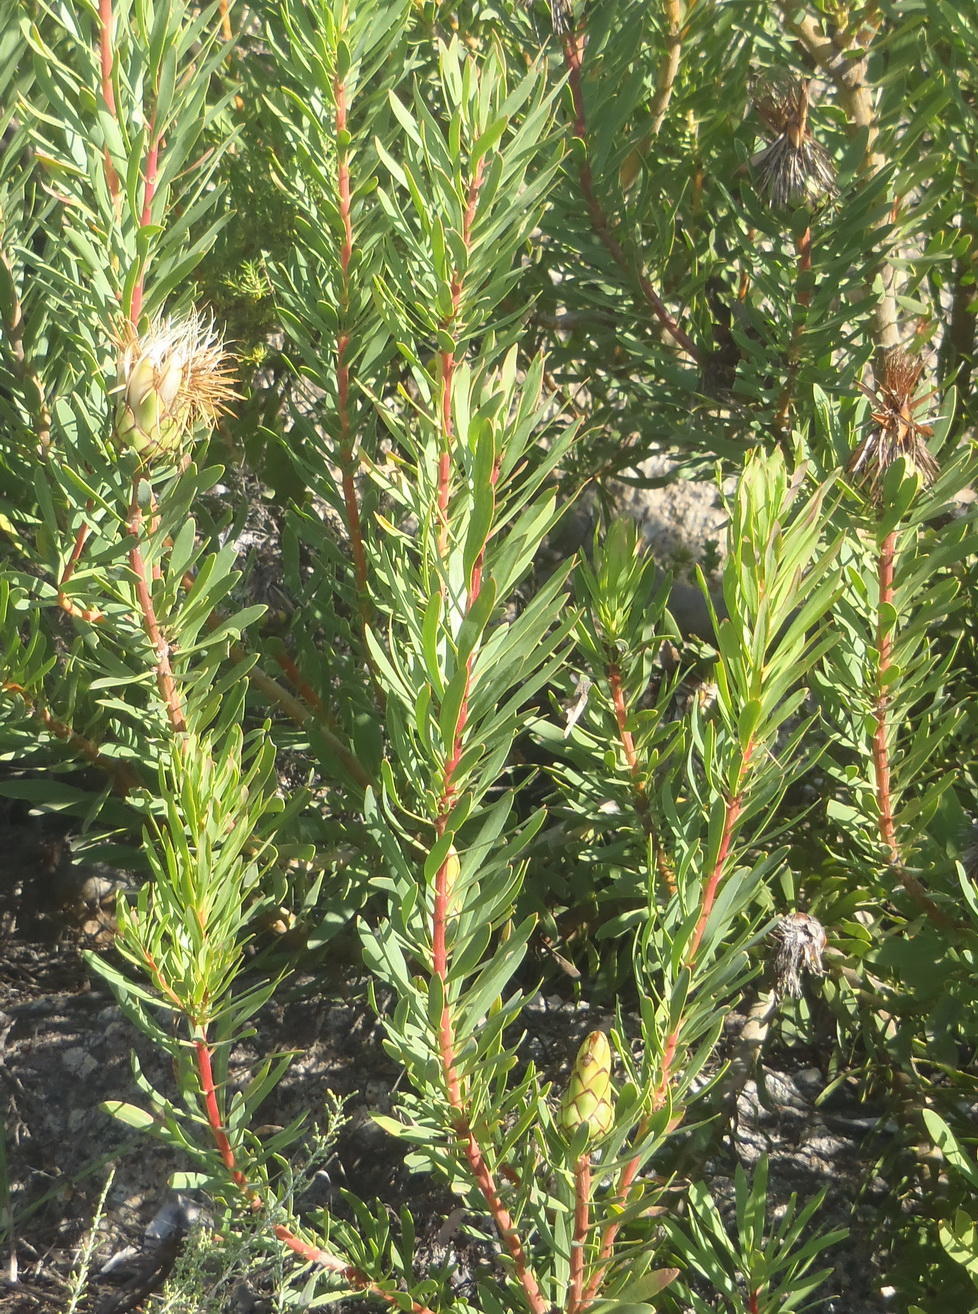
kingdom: Plantae
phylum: Tracheophyta
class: Magnoliopsida
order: Proteales
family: Proteaceae
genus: Protea
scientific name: Protea lanceolata
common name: Lance-leaved protea
